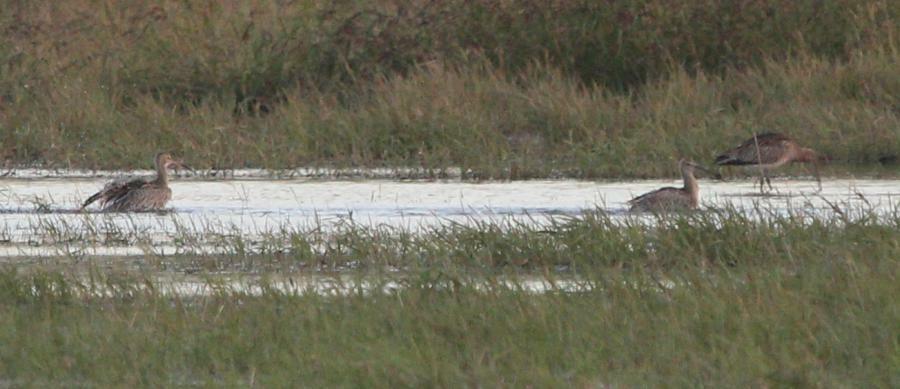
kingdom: Animalia
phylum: Chordata
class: Aves
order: Charadriiformes
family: Scolopacidae
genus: Numenius
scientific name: Numenius arquata
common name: Eurasian curlew
